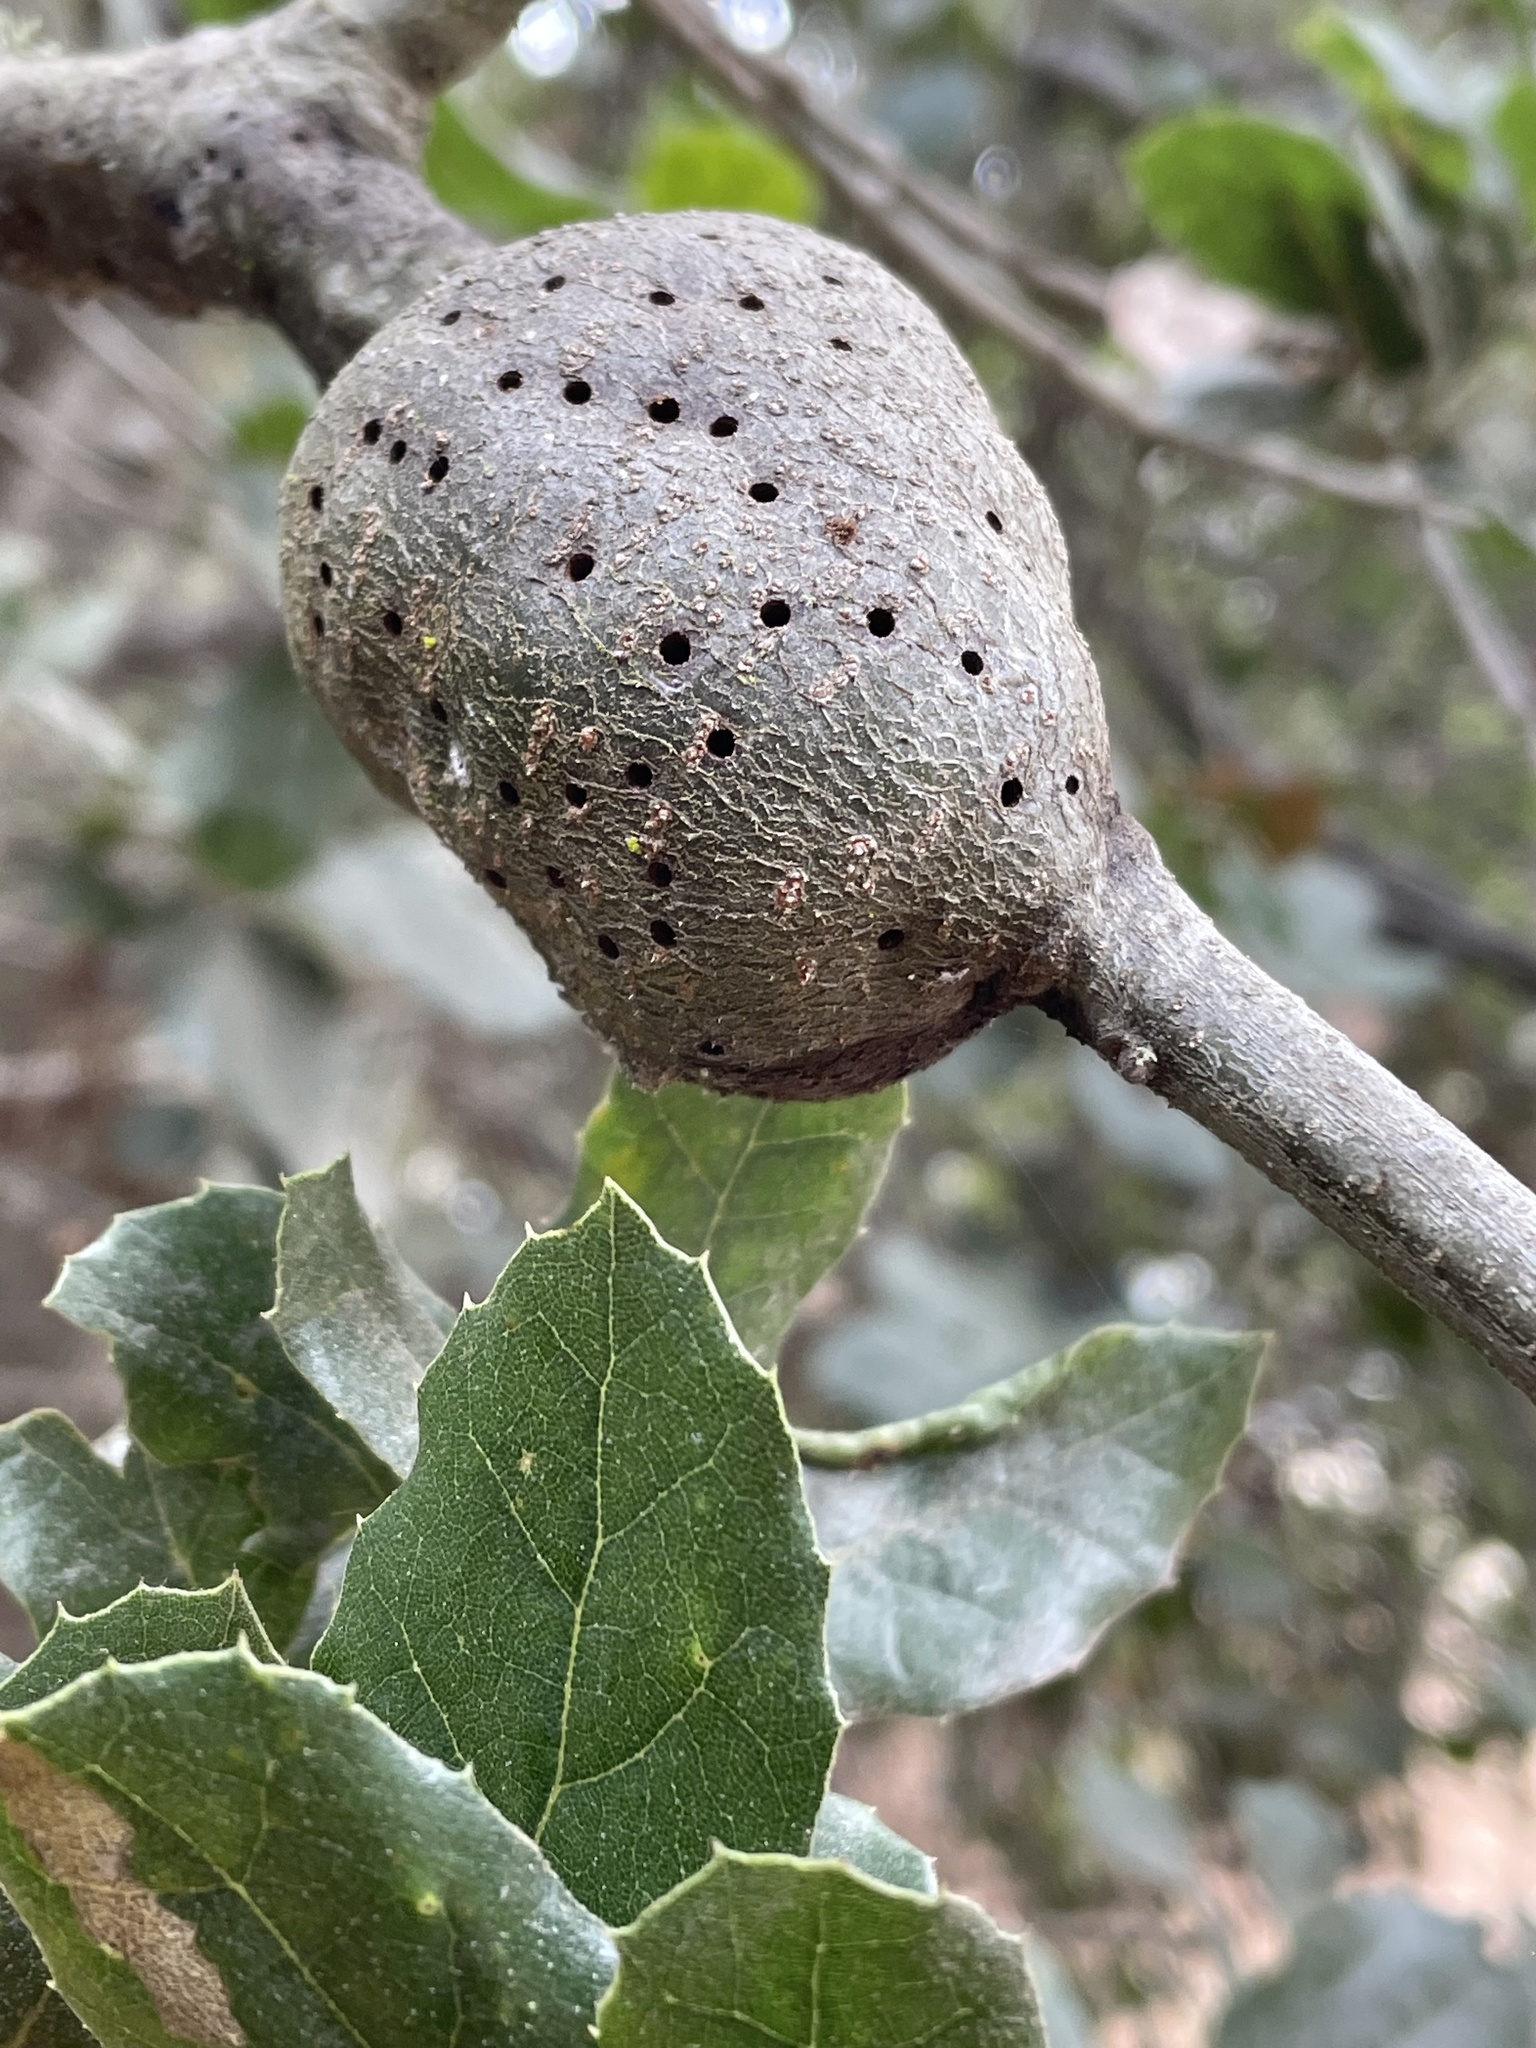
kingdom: Animalia
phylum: Arthropoda
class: Insecta
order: Hymenoptera
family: Cynipidae
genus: Callirhytis
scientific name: Callirhytis
